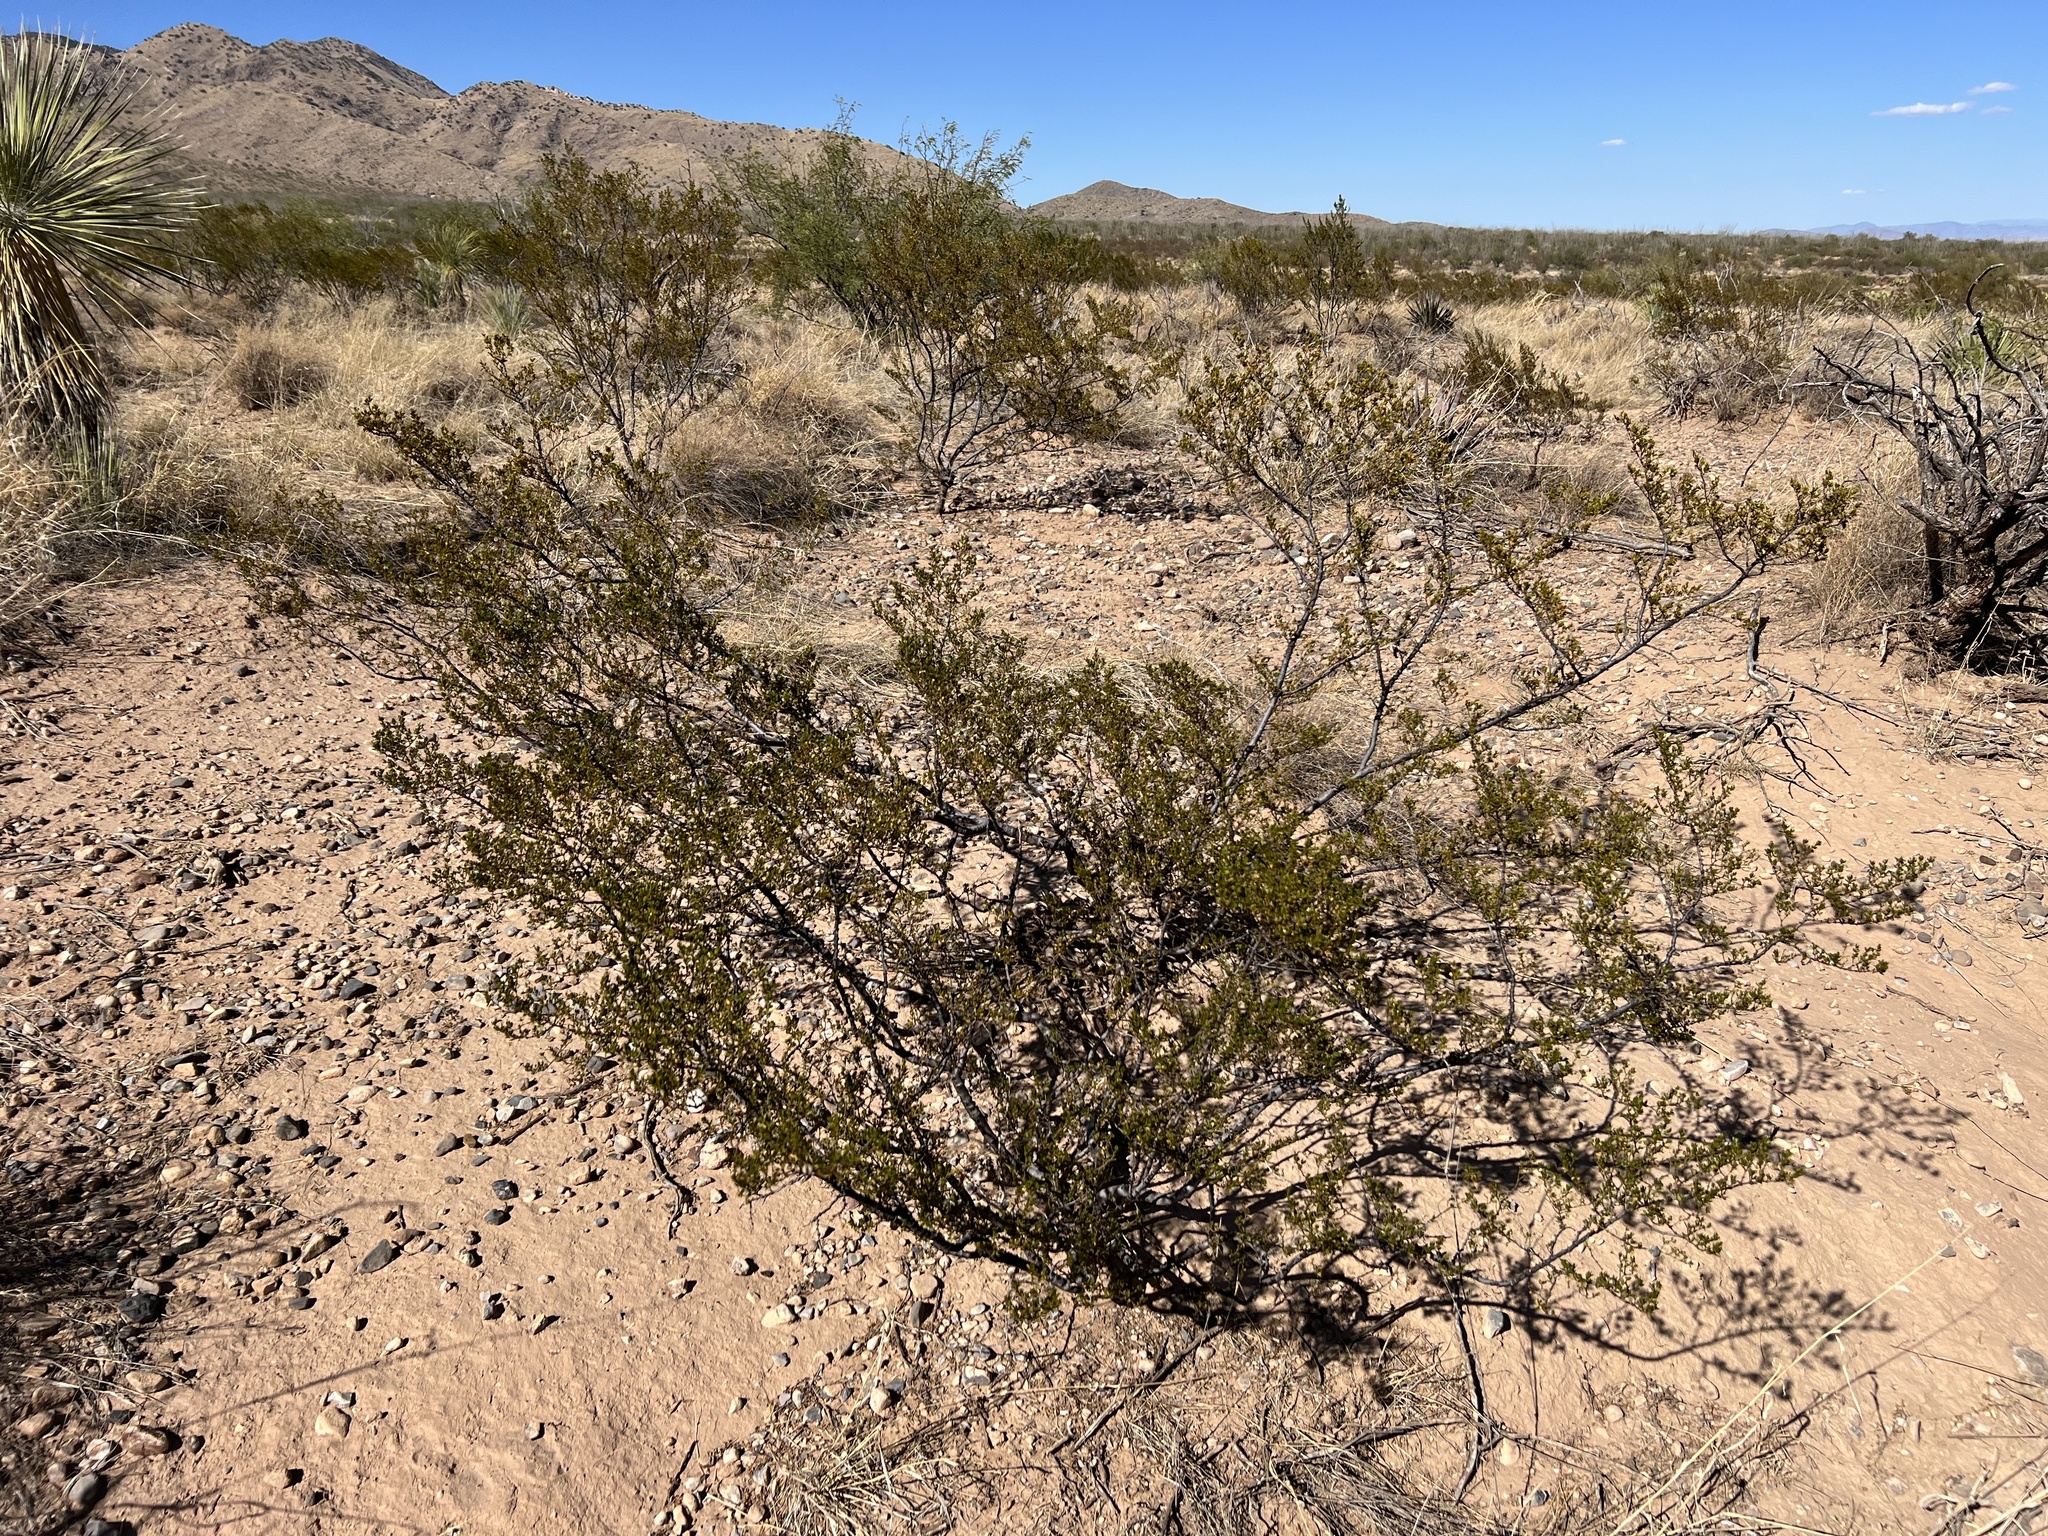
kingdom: Plantae
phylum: Tracheophyta
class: Magnoliopsida
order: Zygophyllales
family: Zygophyllaceae
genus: Larrea
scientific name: Larrea tridentata
